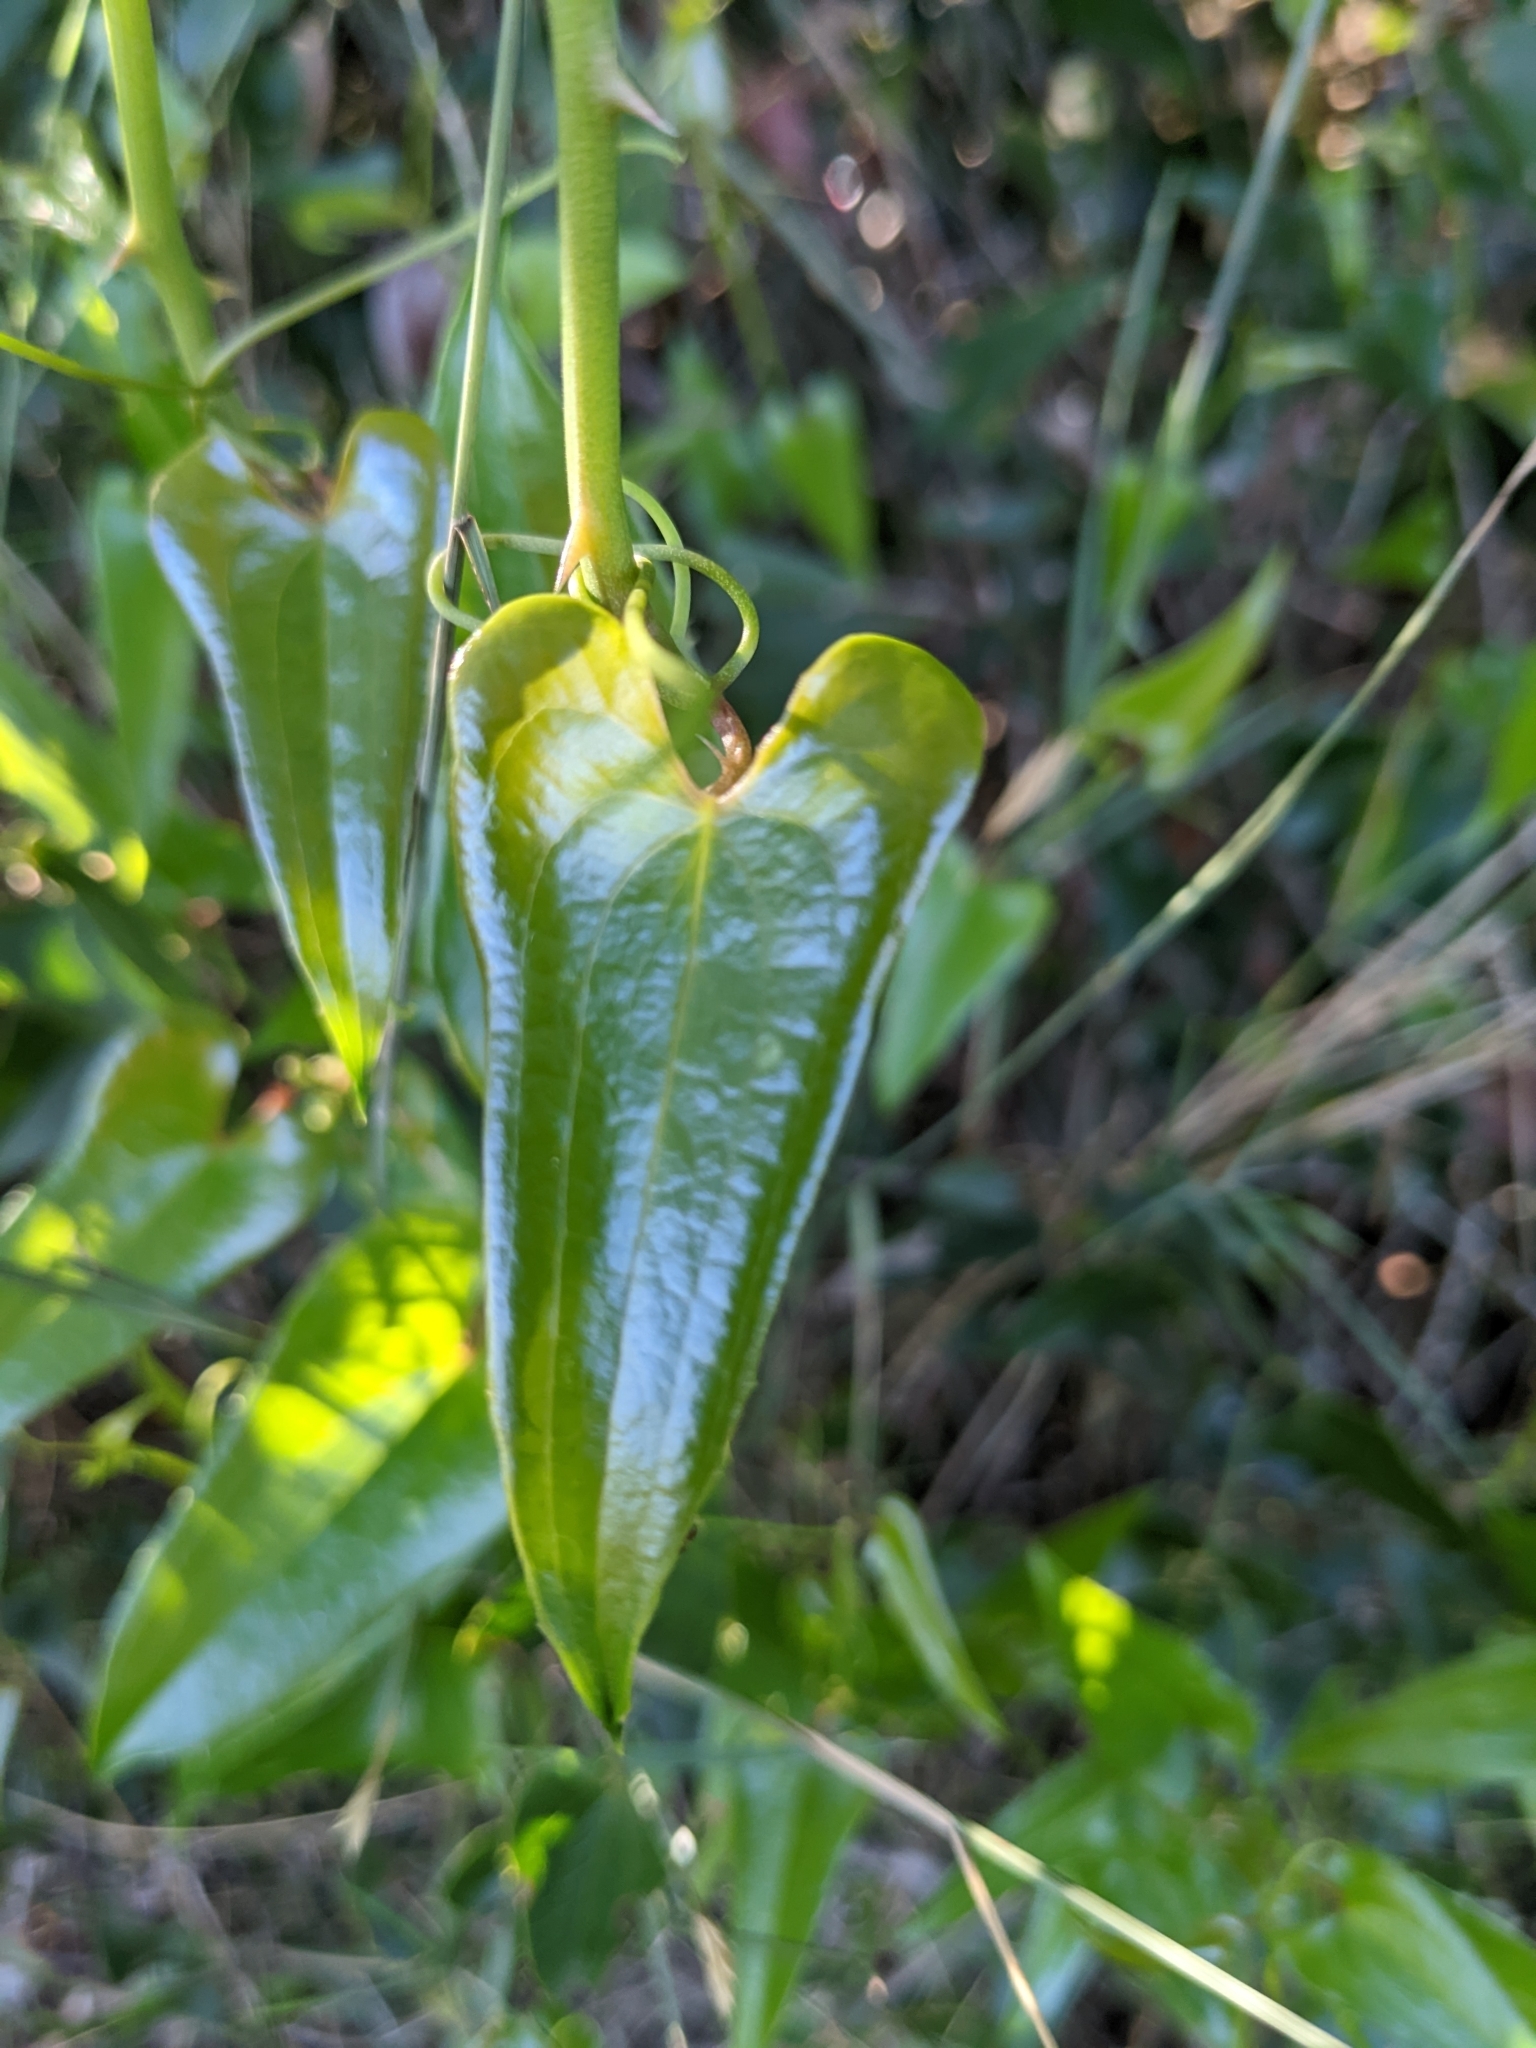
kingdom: Plantae
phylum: Tracheophyta
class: Liliopsida
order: Liliales
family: Smilacaceae
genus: Smilax
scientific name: Smilax aspera
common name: Common smilax
